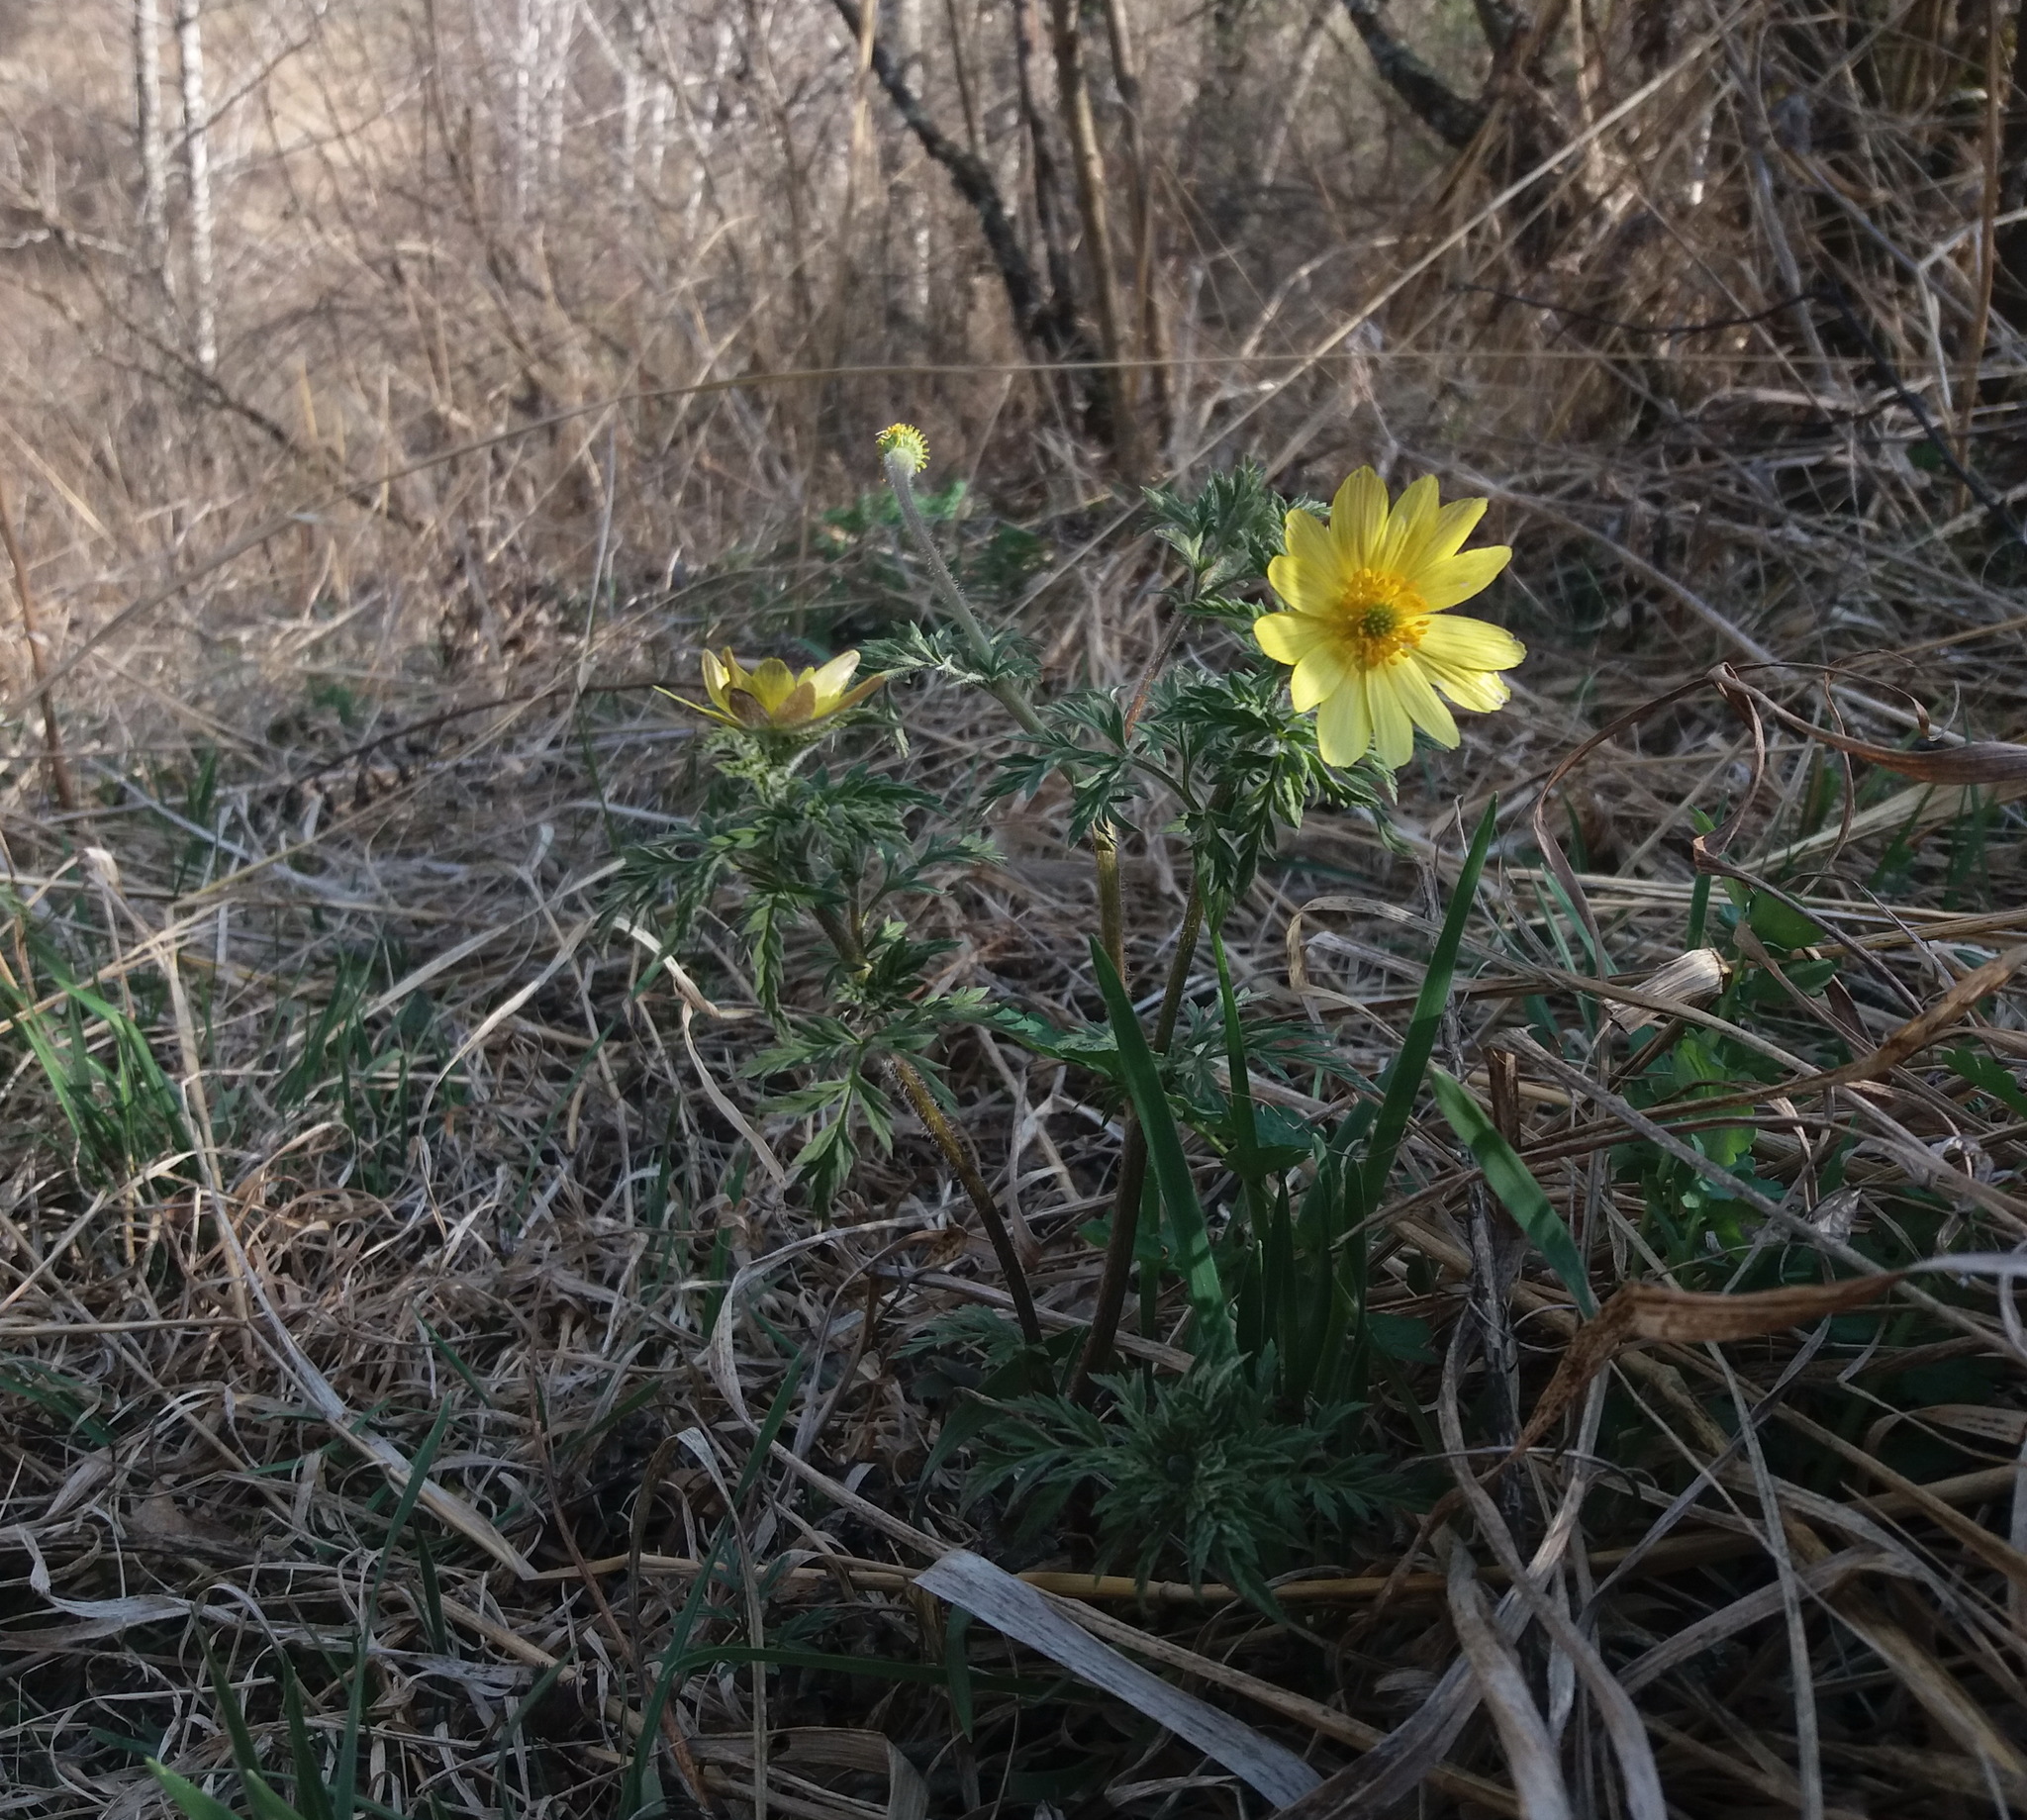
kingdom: Plantae
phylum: Tracheophyta
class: Magnoliopsida
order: Ranunculales
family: Ranunculaceae
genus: Adonis
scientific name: Adonis villosa
